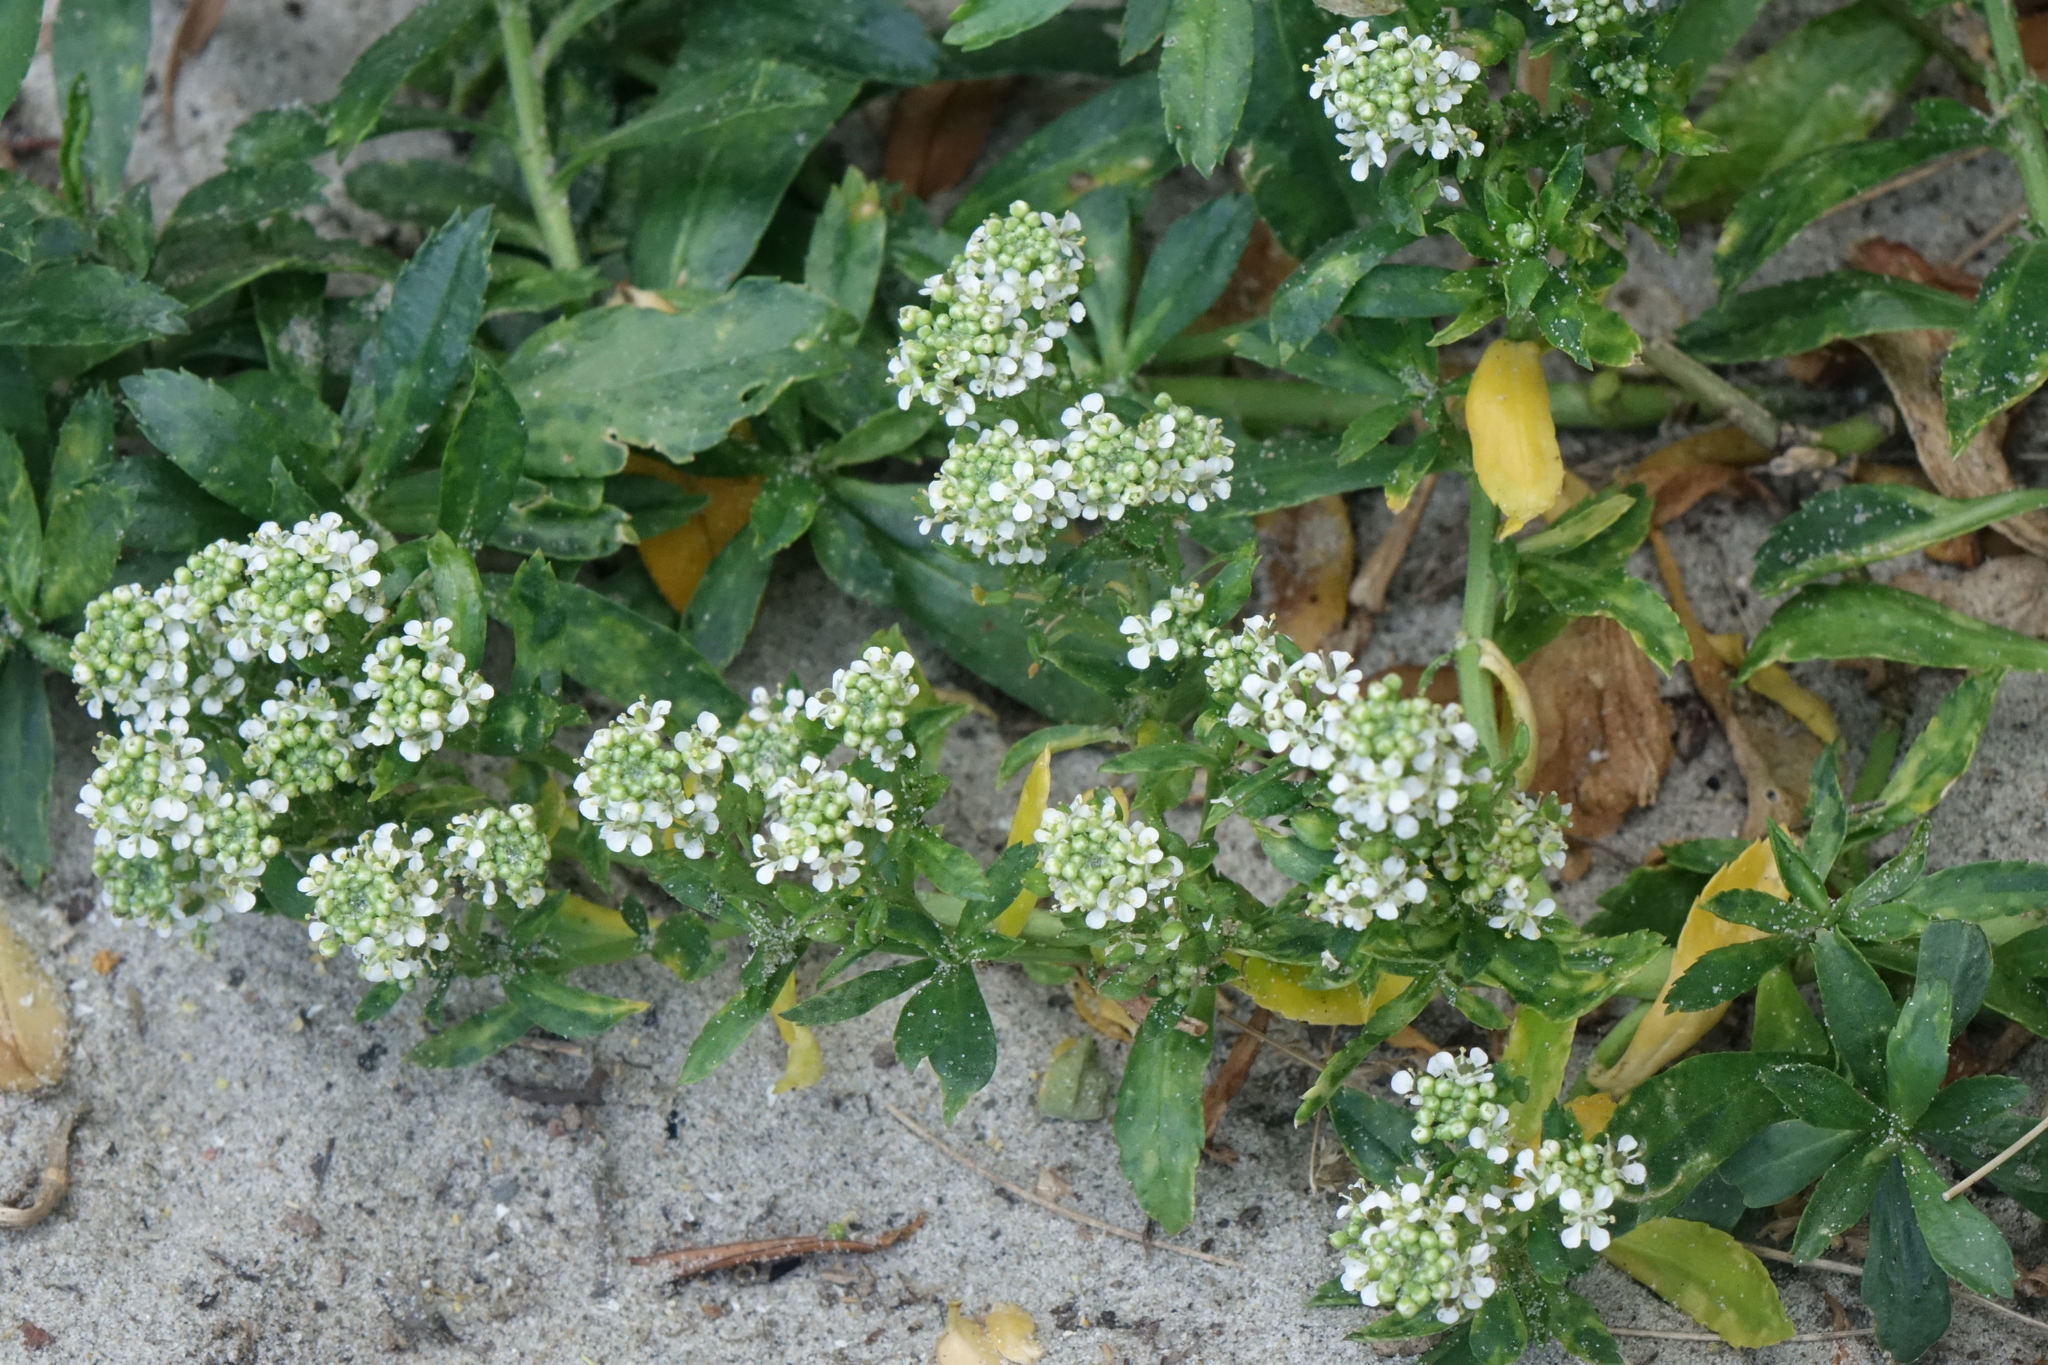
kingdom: Plantae
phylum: Tracheophyta
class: Magnoliopsida
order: Brassicales
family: Brassicaceae
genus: Lepidium
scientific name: Lepidium juvencum
